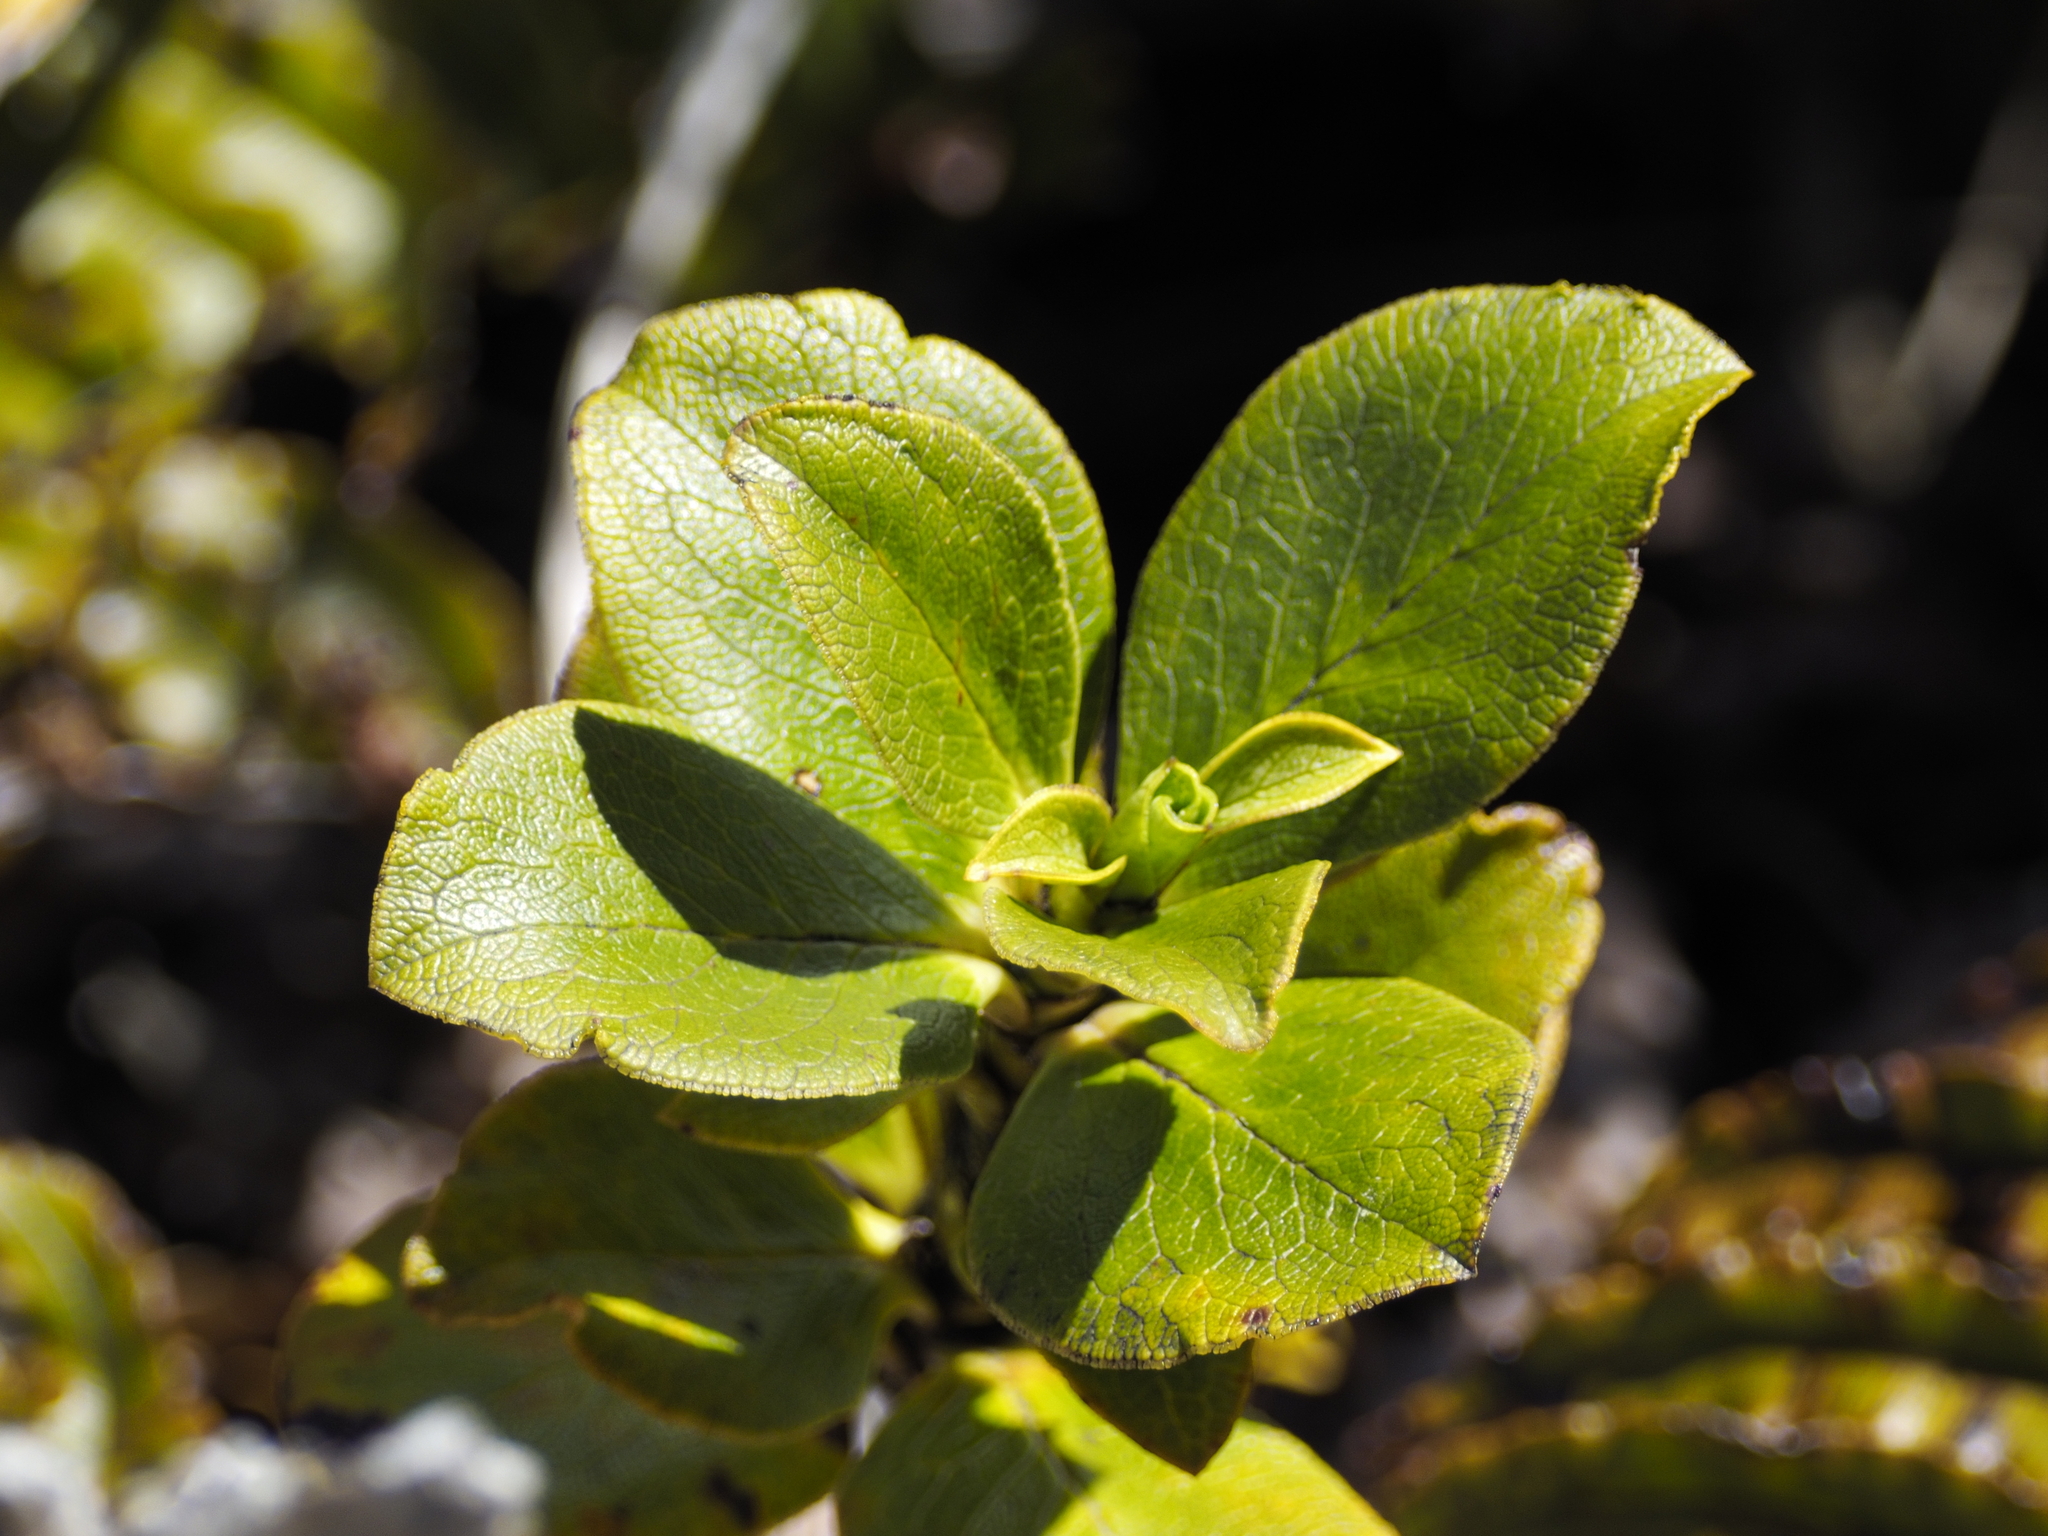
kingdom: Plantae
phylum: Tracheophyta
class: Magnoliopsida
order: Gentianales
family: Rubiaceae
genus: Coprosma
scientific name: Coprosma serrulata
